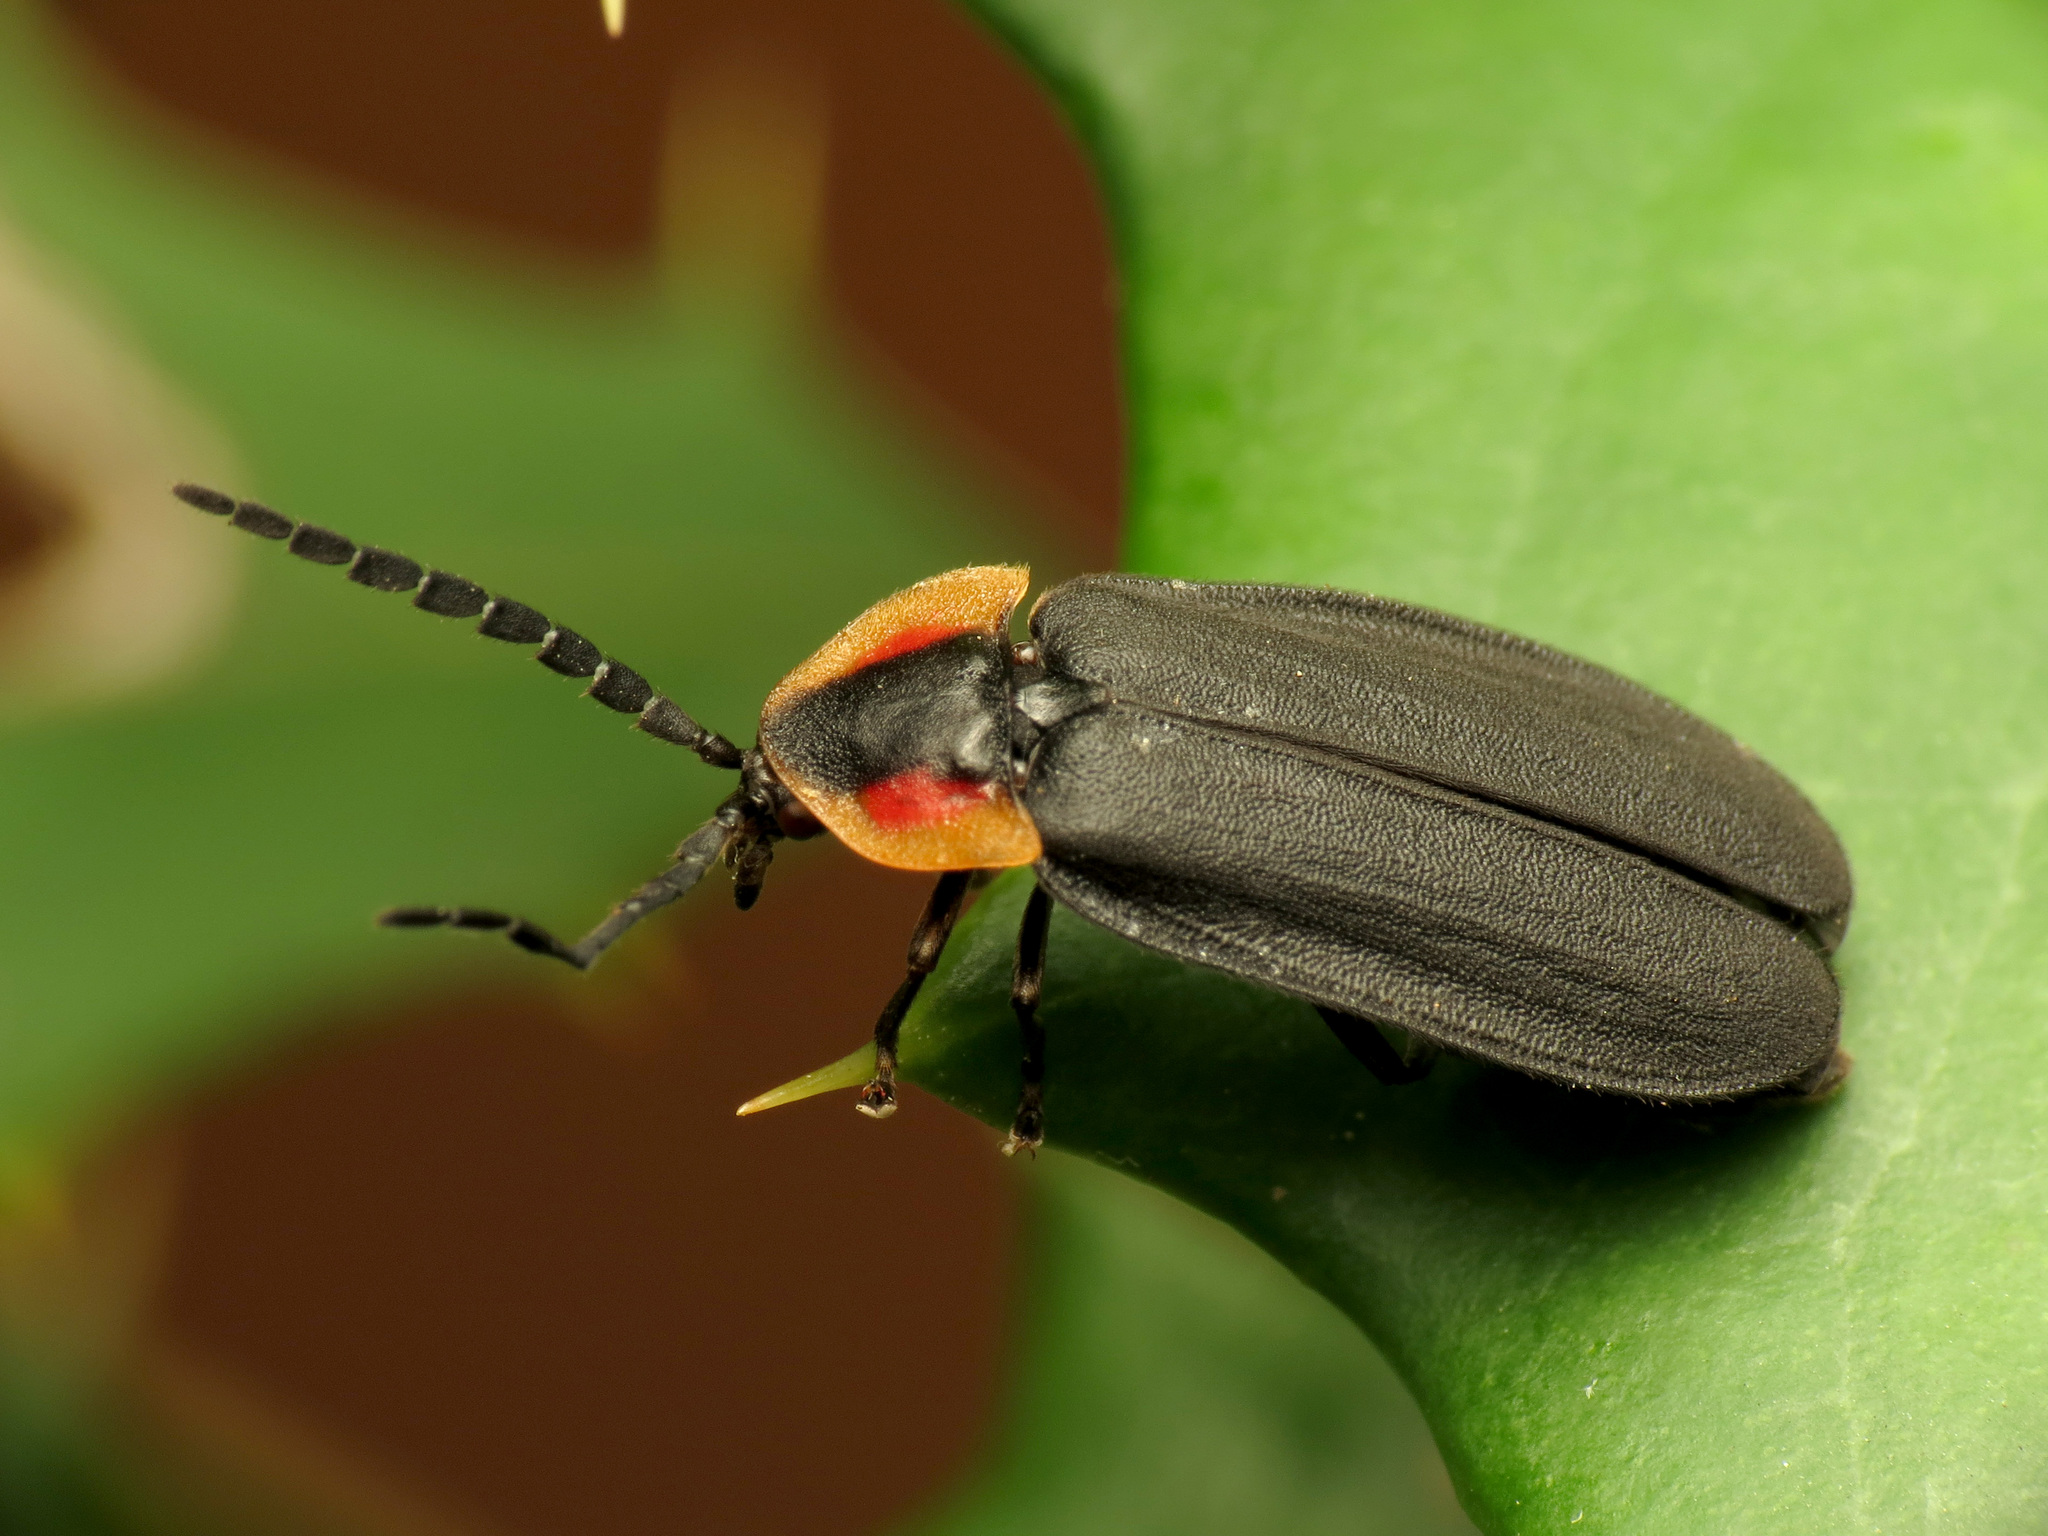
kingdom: Animalia
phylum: Arthropoda
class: Insecta
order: Coleoptera
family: Lampyridae
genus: Lucidota
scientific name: Lucidota atra
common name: Black firefly
